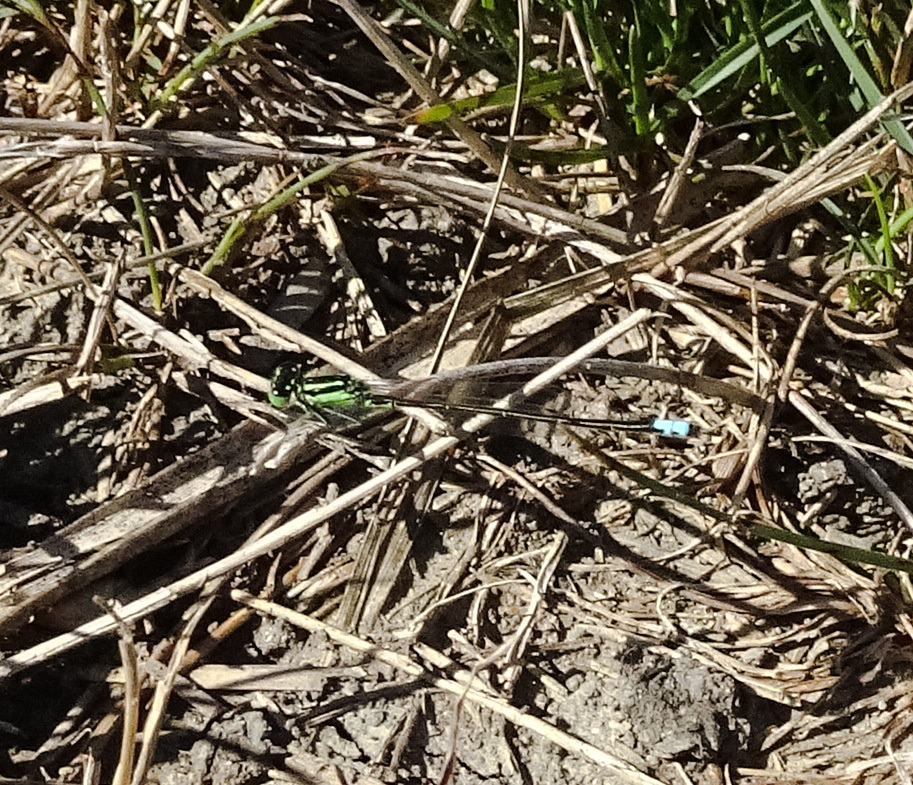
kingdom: Animalia
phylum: Arthropoda
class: Insecta
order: Odonata
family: Coenagrionidae
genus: Ischnura
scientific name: Ischnura verticalis
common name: Eastern forktail
